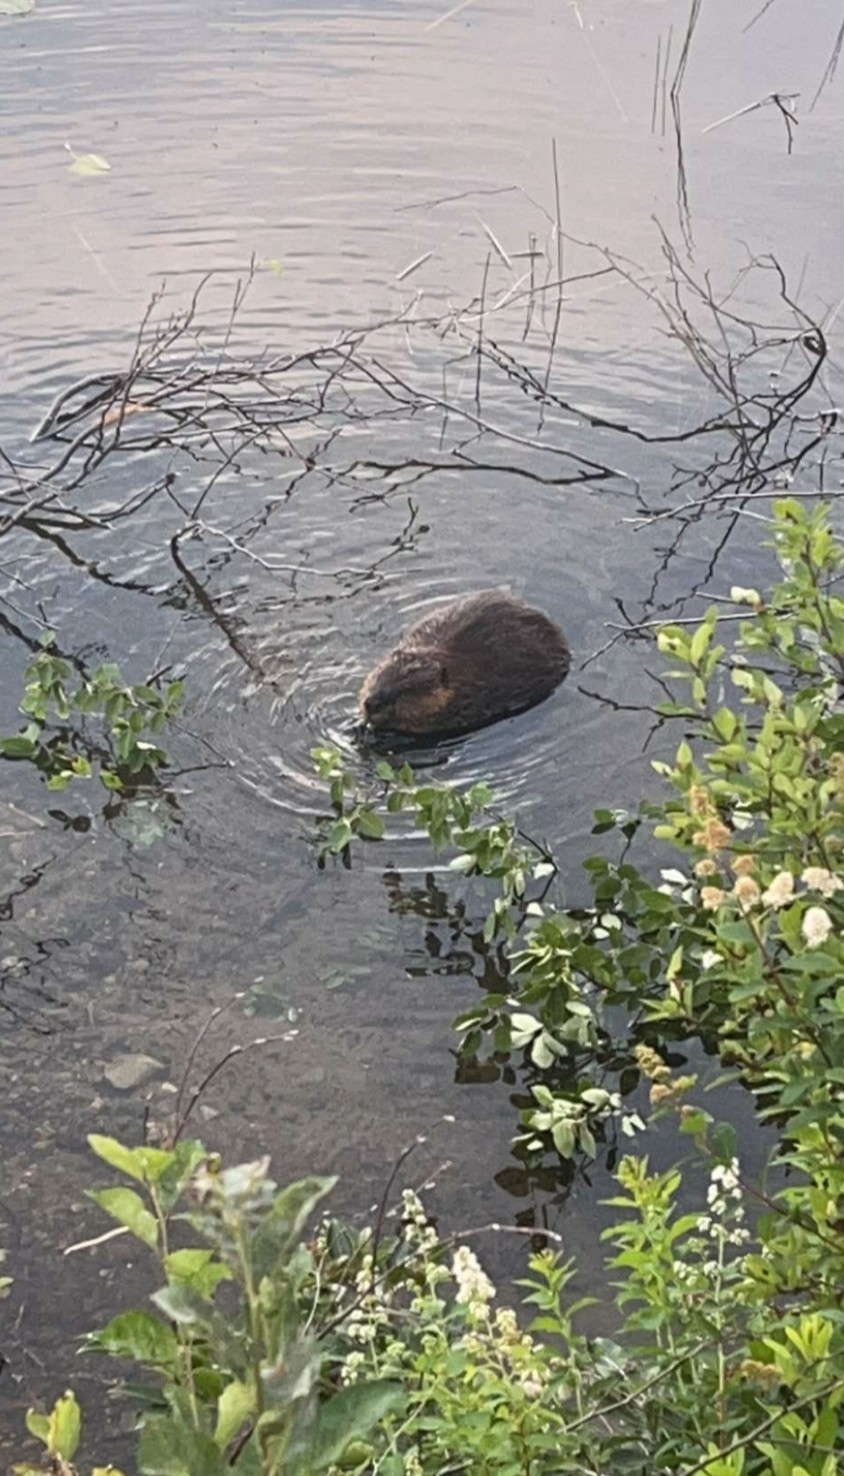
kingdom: Animalia
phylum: Chordata
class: Mammalia
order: Rodentia
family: Castoridae
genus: Castor
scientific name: Castor canadensis
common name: American beaver
